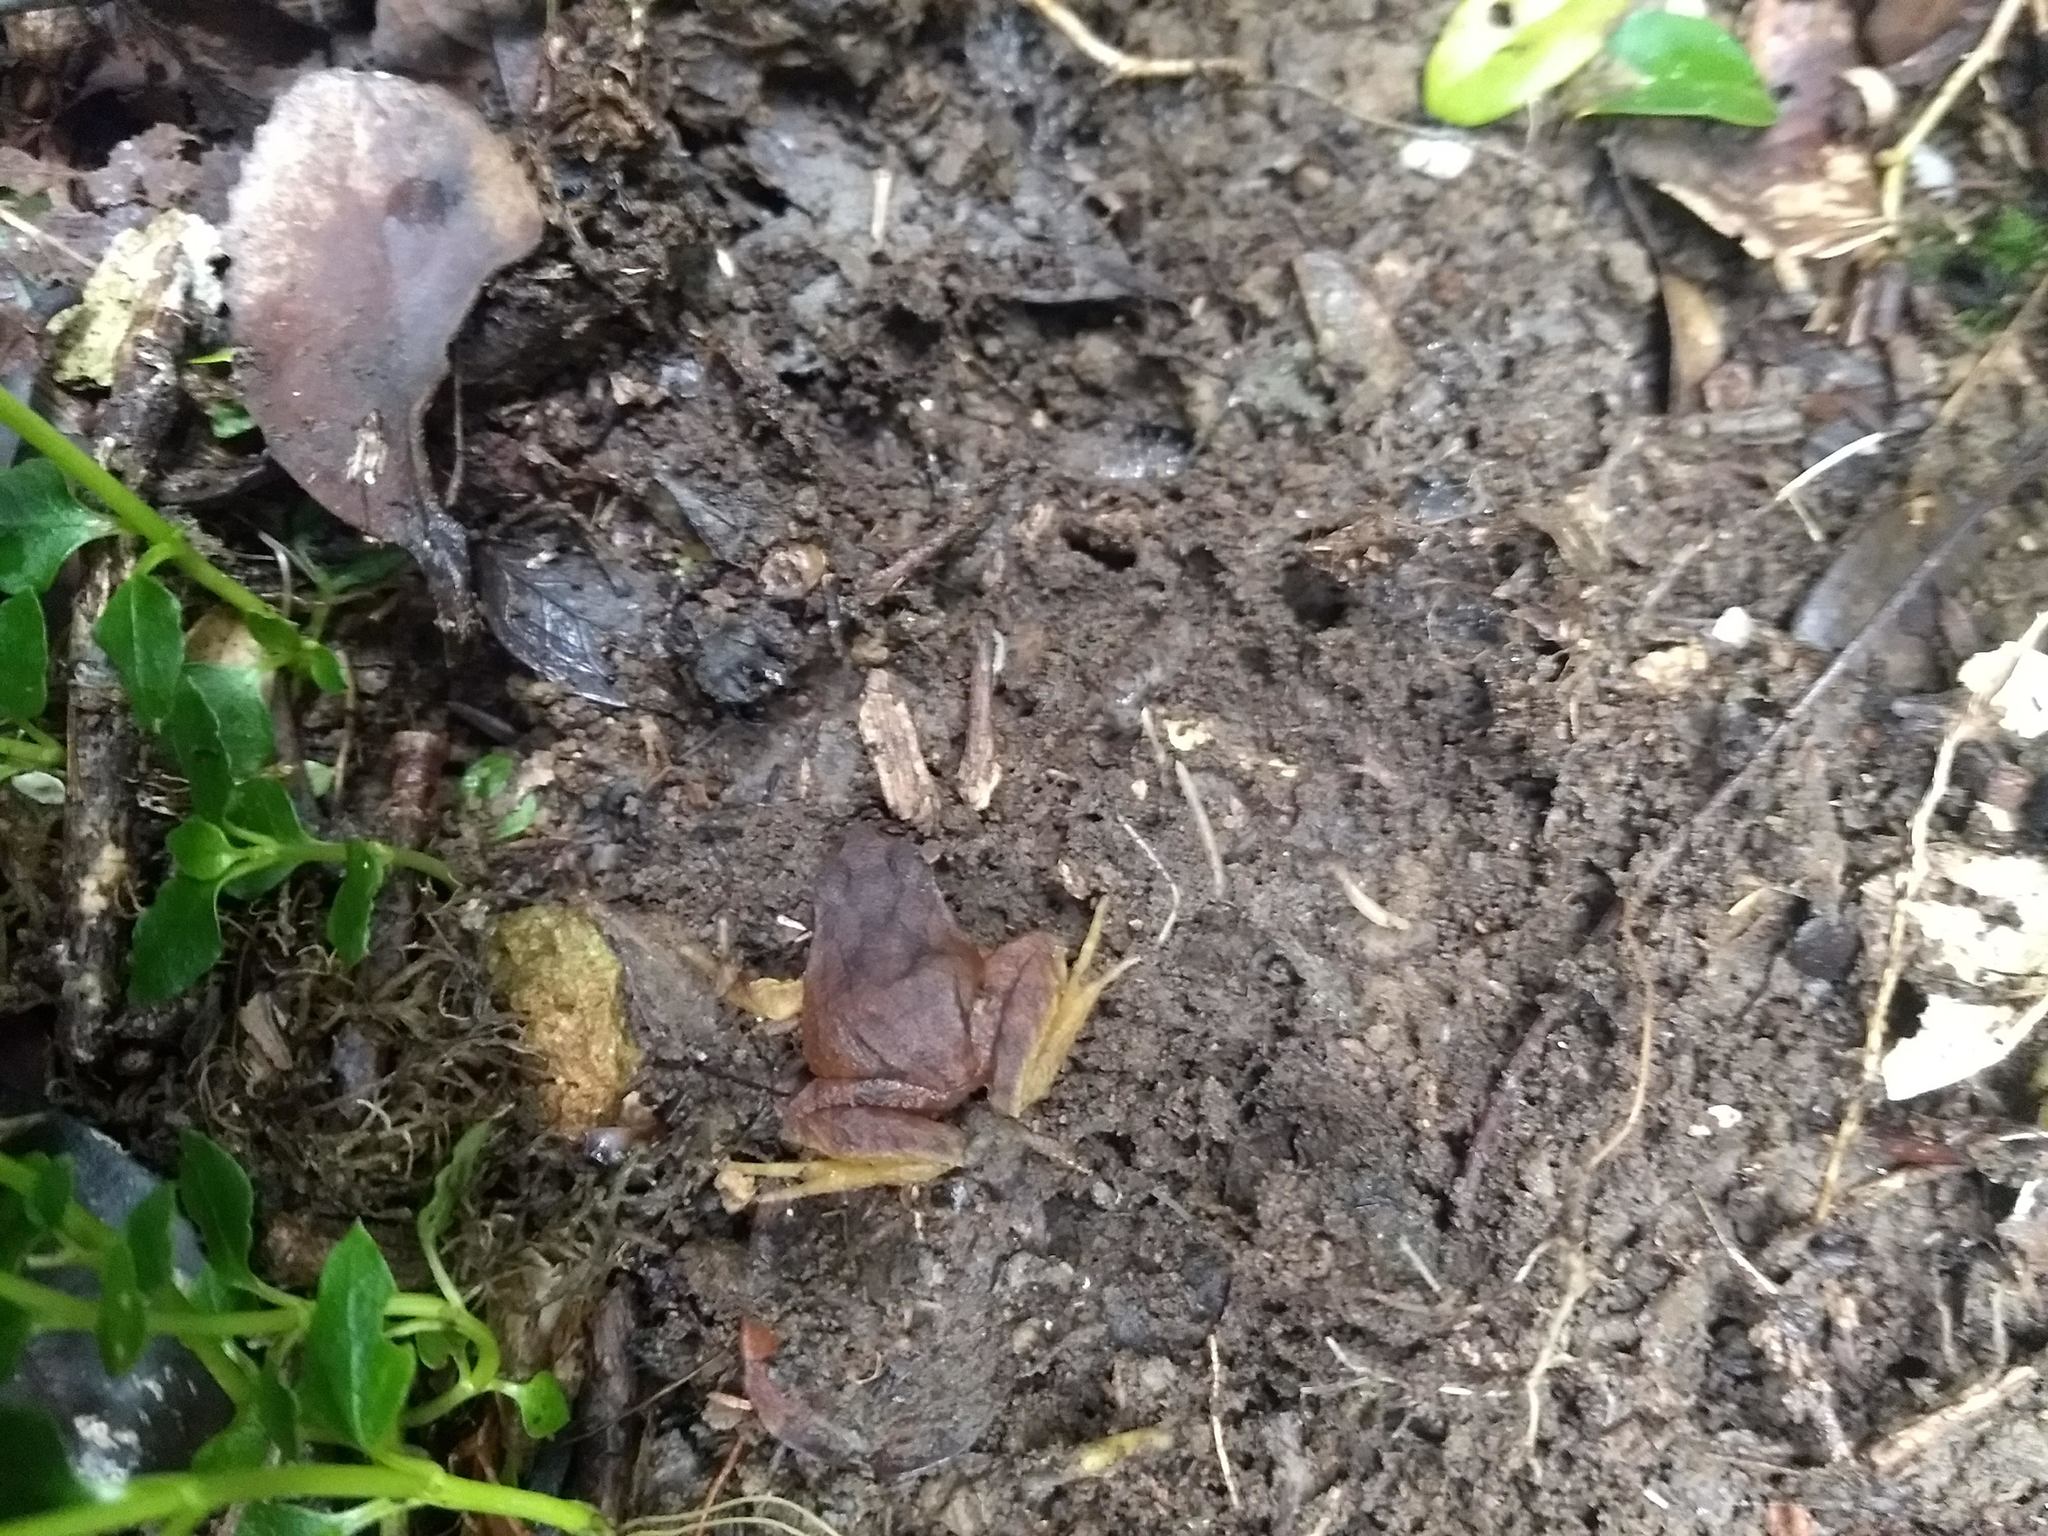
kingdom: Animalia
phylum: Chordata
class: Amphibia
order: Anura
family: Alsodidae
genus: Eupsophus
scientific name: Eupsophus migueli
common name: Miguel's ground frog
